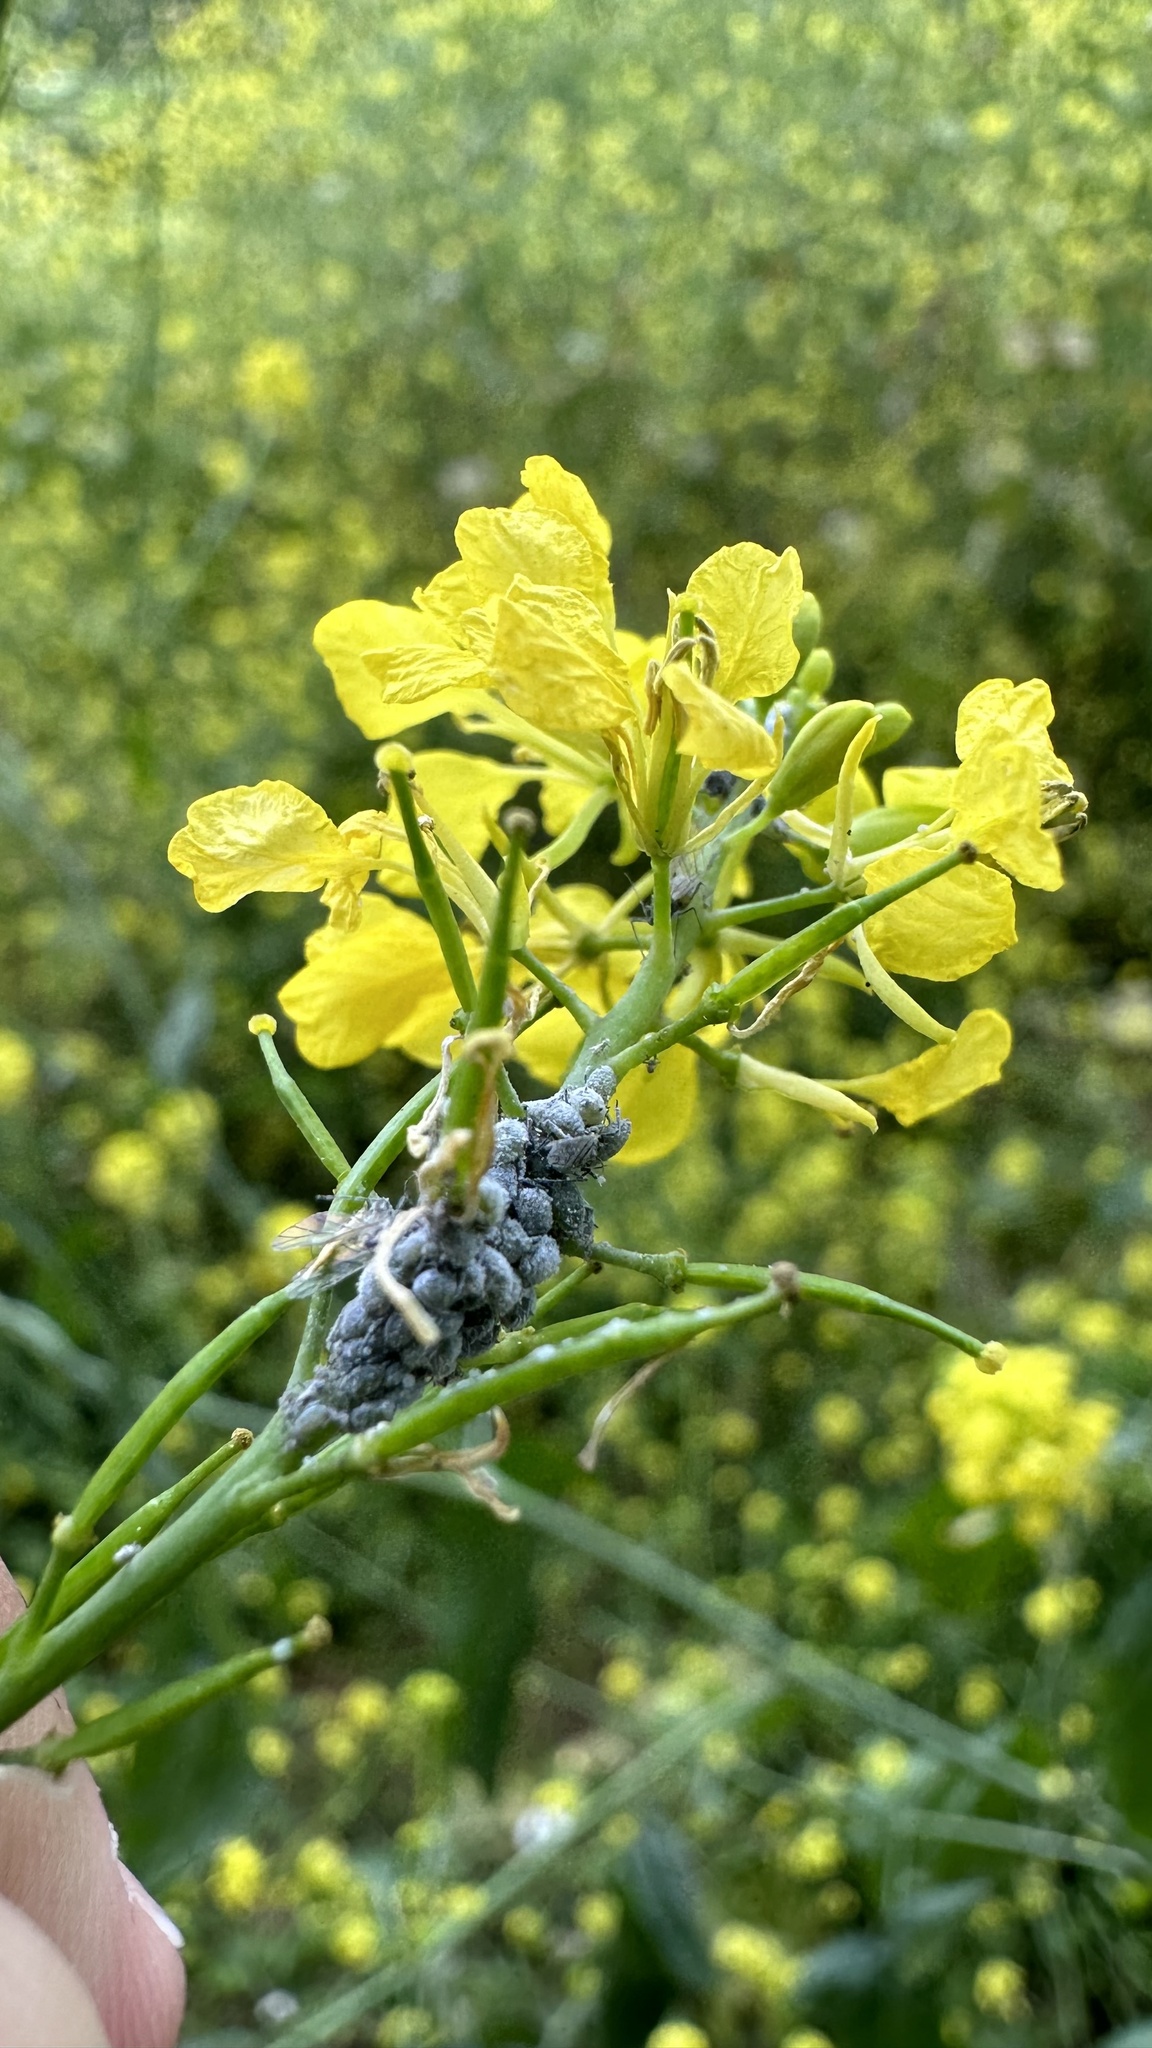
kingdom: Animalia
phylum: Arthropoda
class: Insecta
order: Hemiptera
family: Aphididae
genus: Brevicoryne
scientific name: Brevicoryne brassicae
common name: Cabbage aphid
